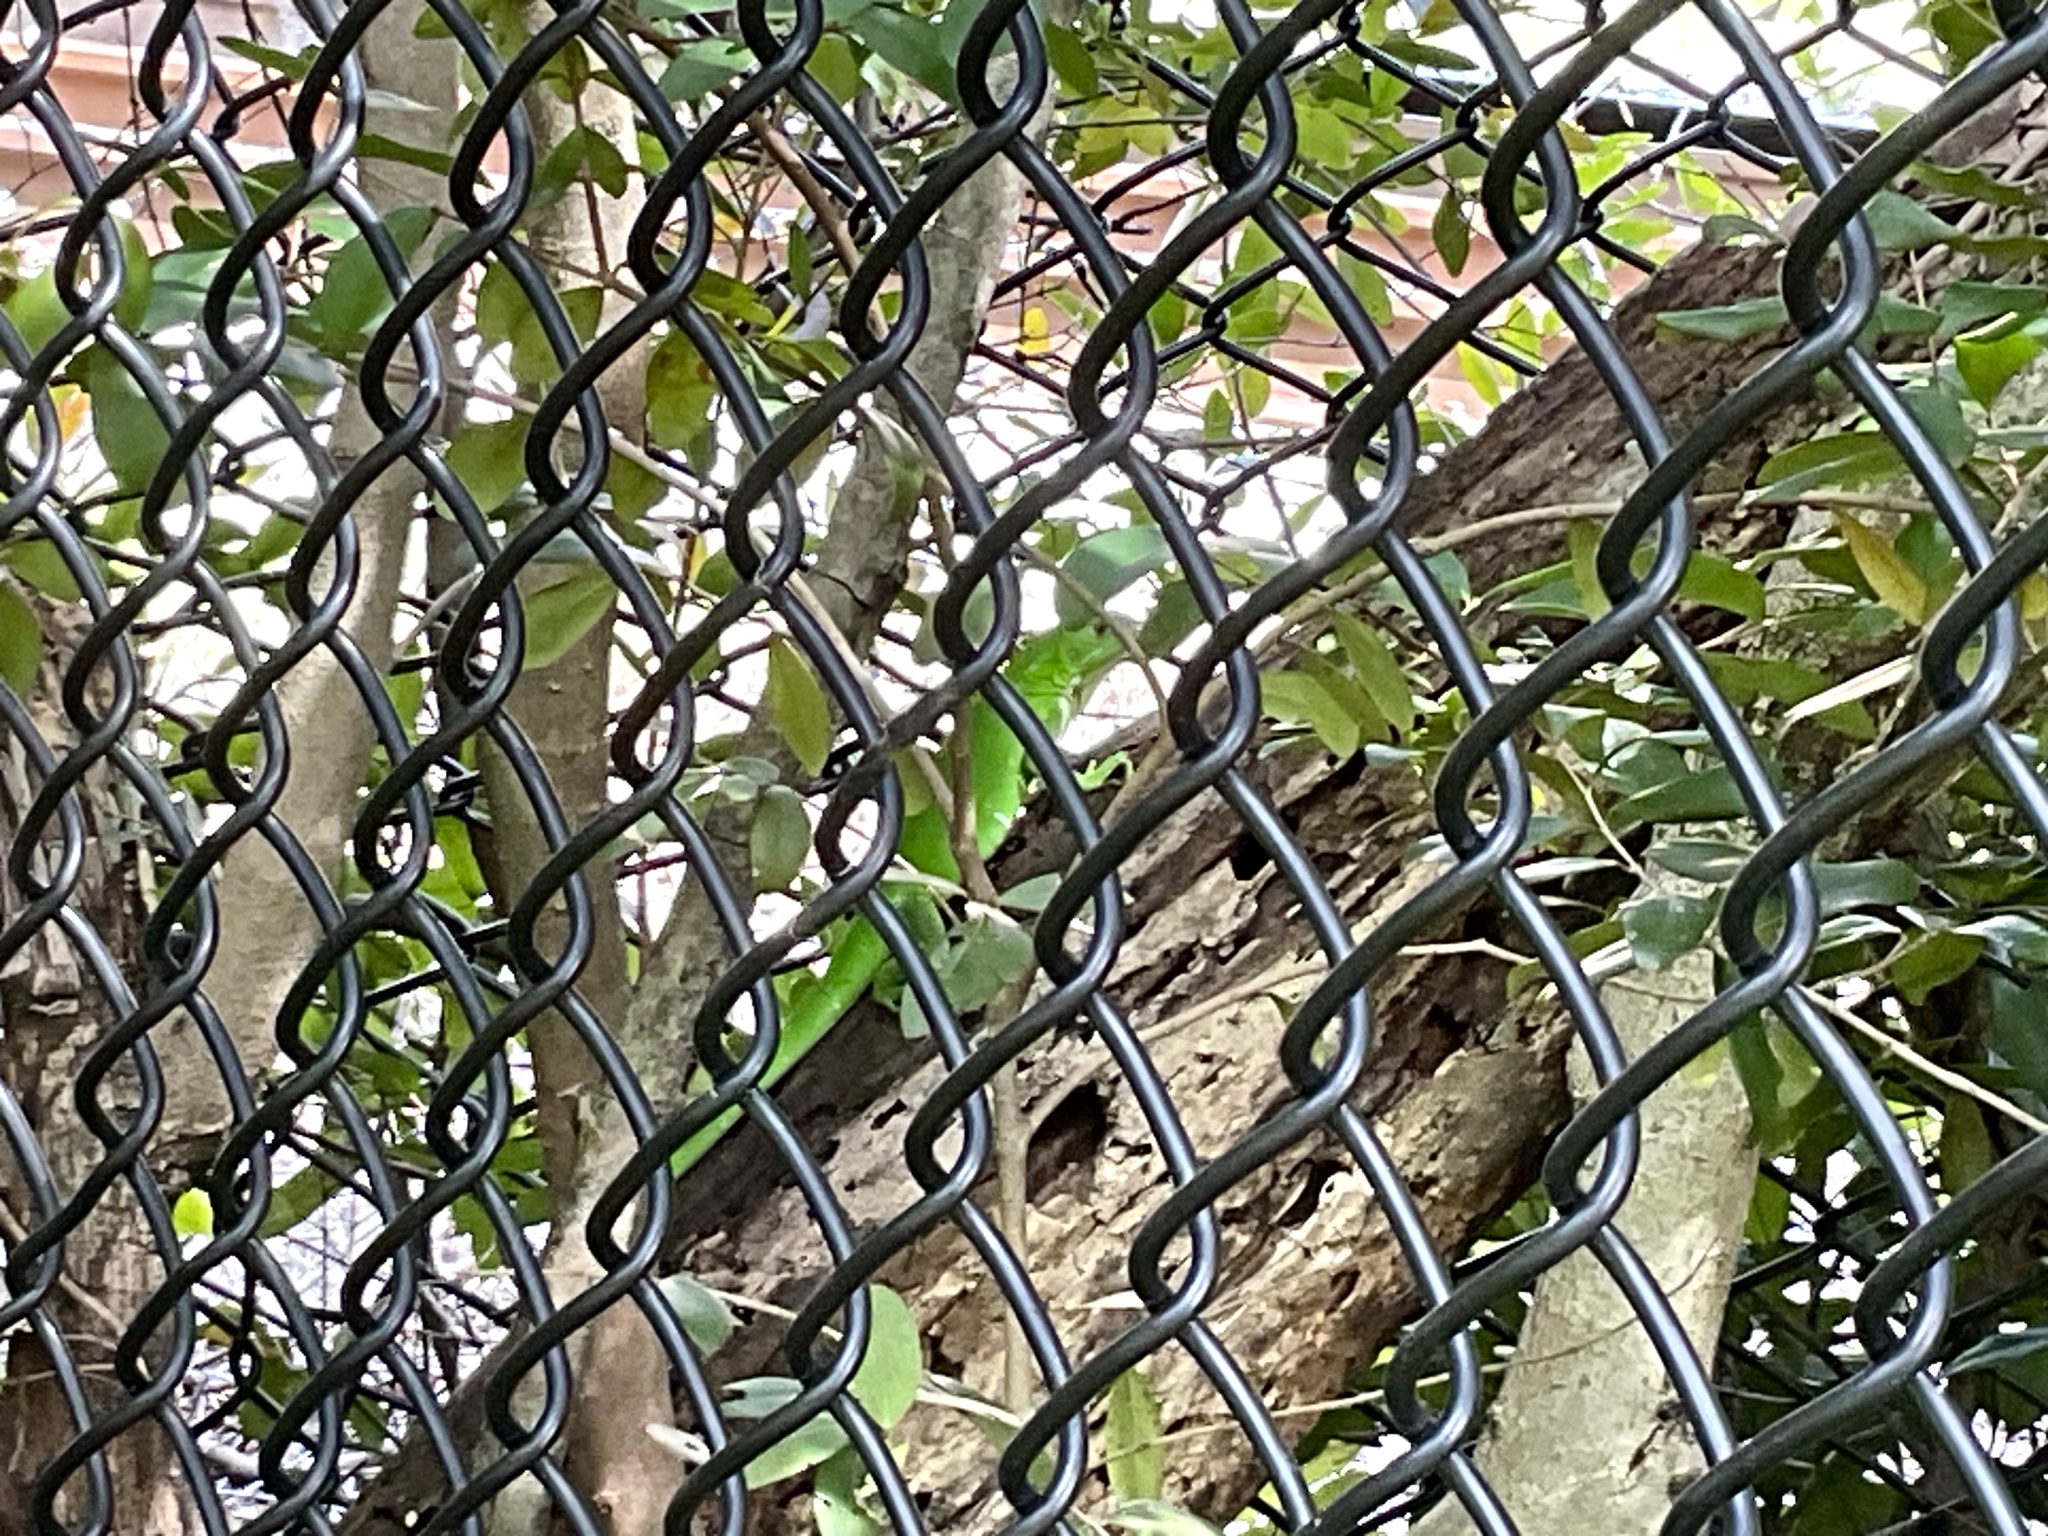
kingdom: Animalia
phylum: Chordata
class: Squamata
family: Iguanidae
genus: Iguana
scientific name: Iguana iguana
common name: Green iguana
